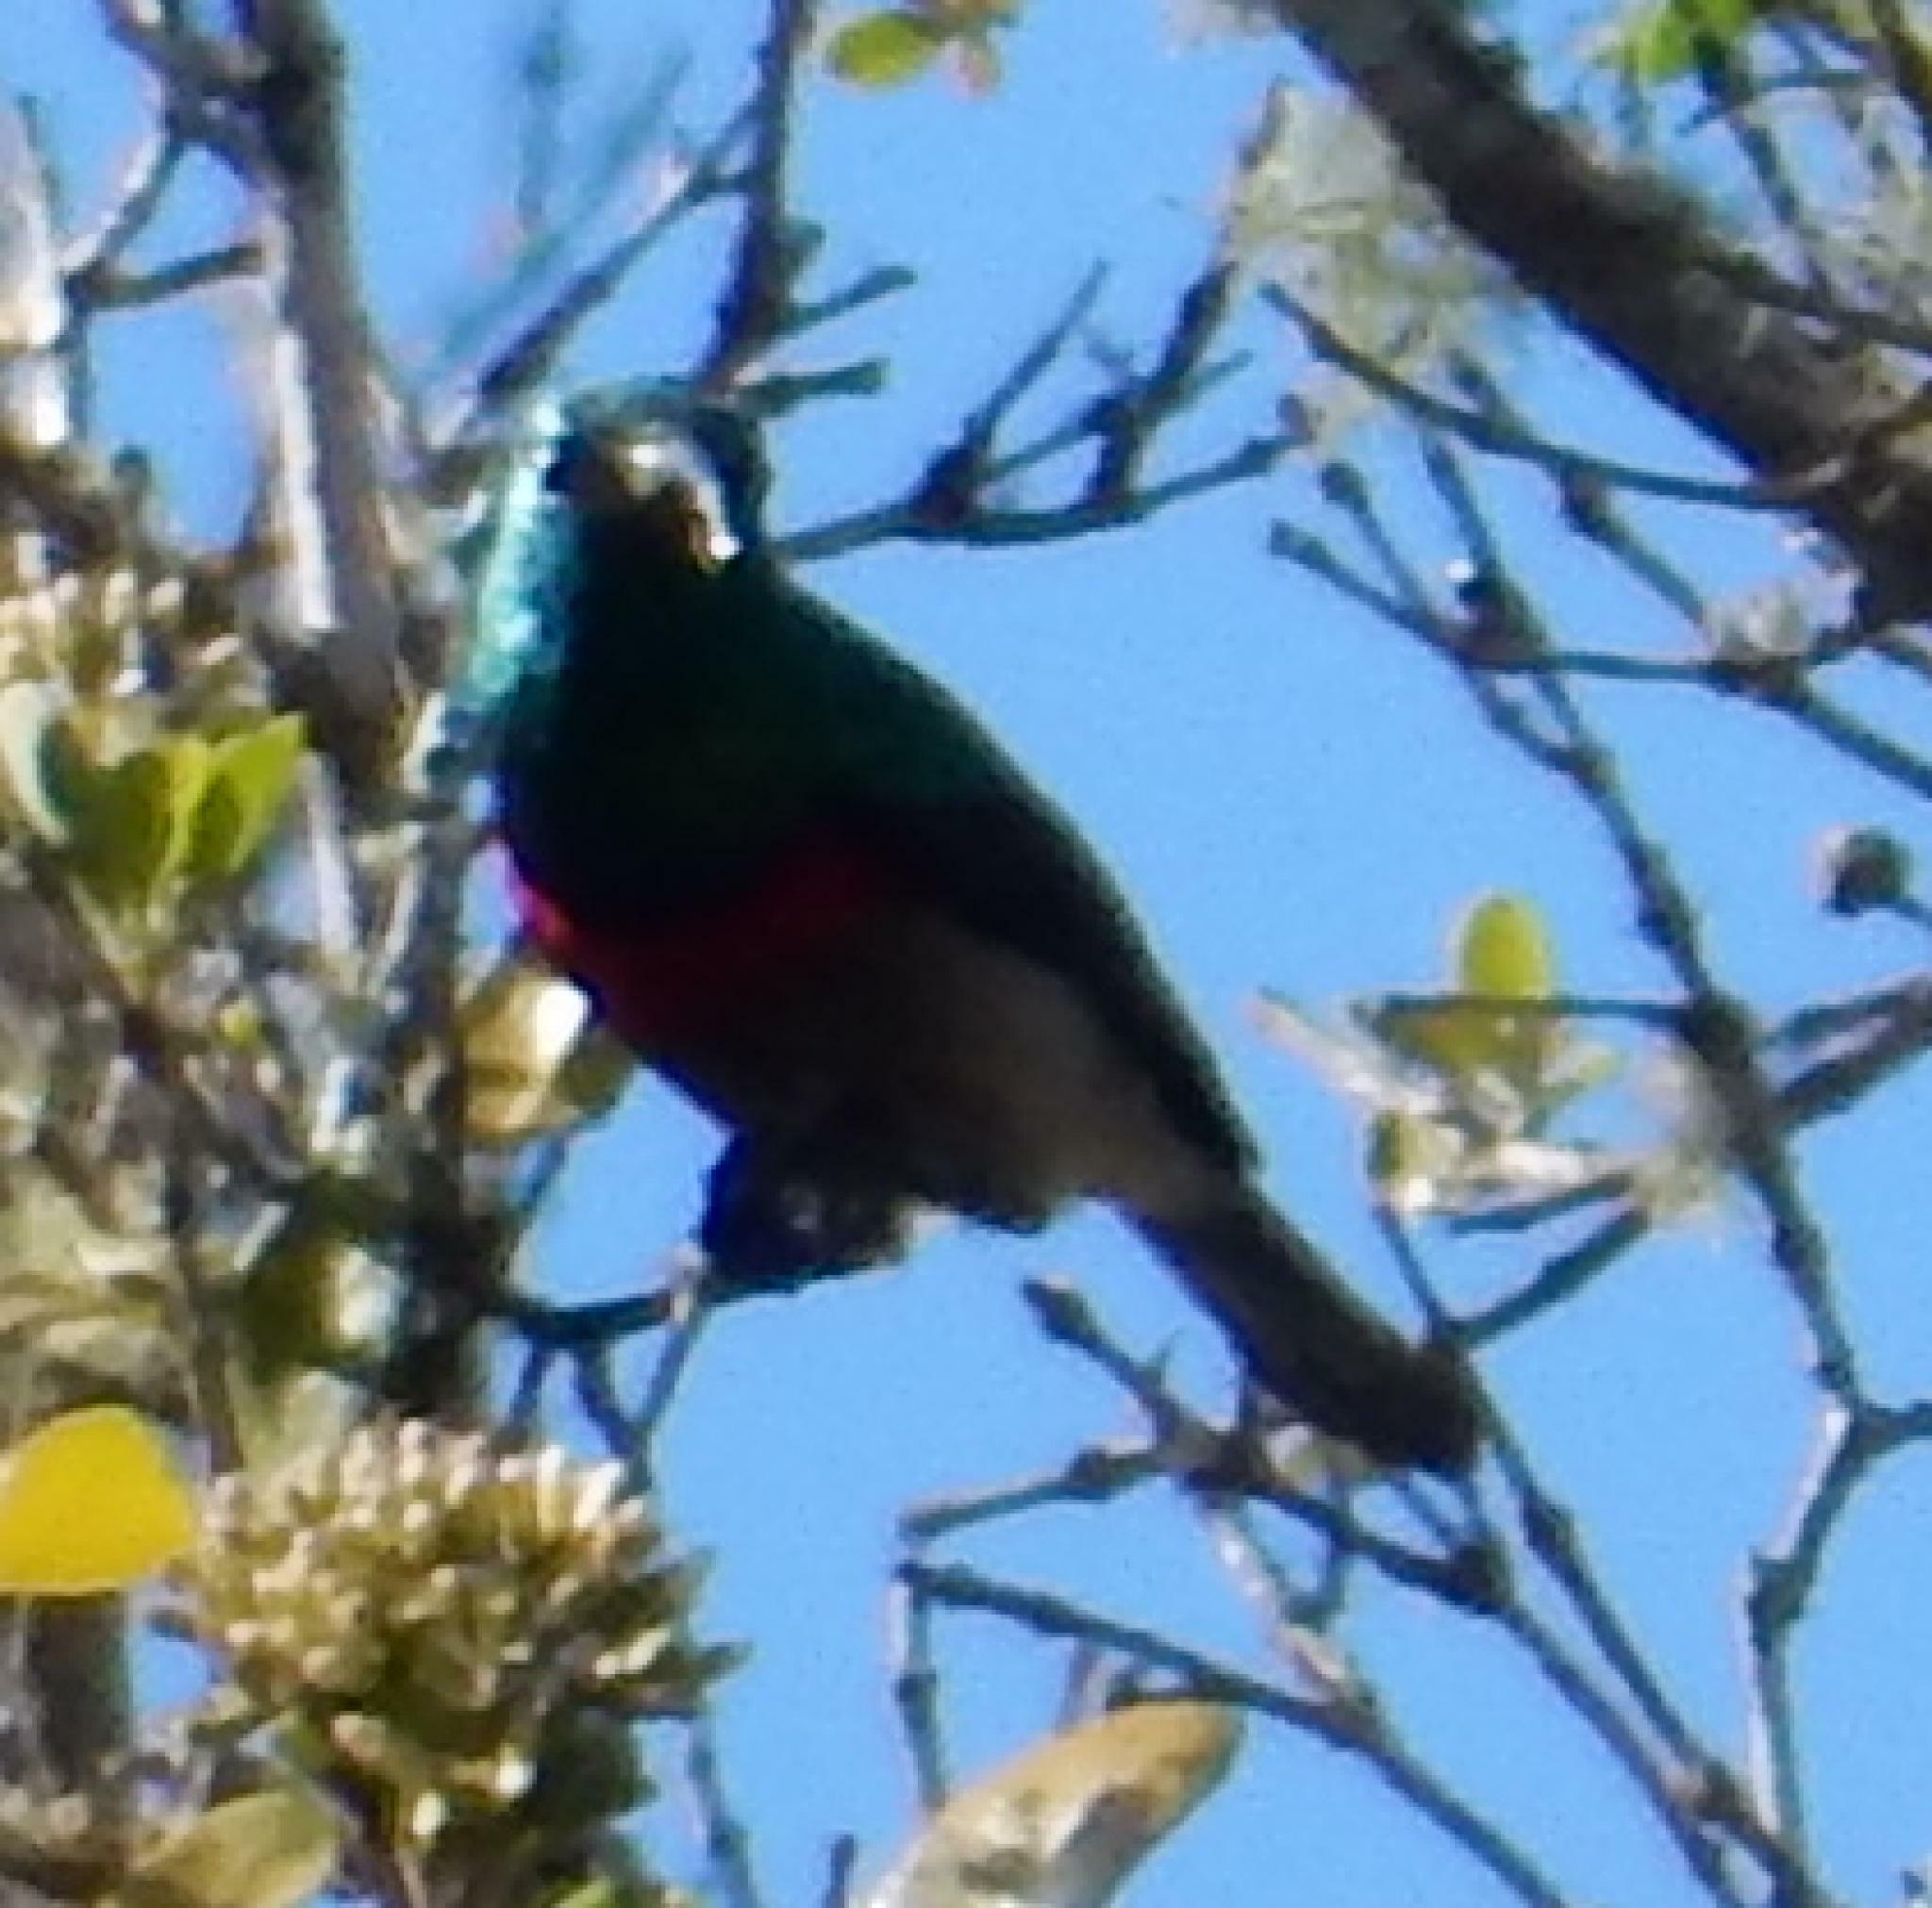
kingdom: Animalia
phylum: Chordata
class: Aves
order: Passeriformes
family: Nectariniidae
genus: Cinnyris
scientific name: Cinnyris afer
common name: Greater double-collared sunbird
